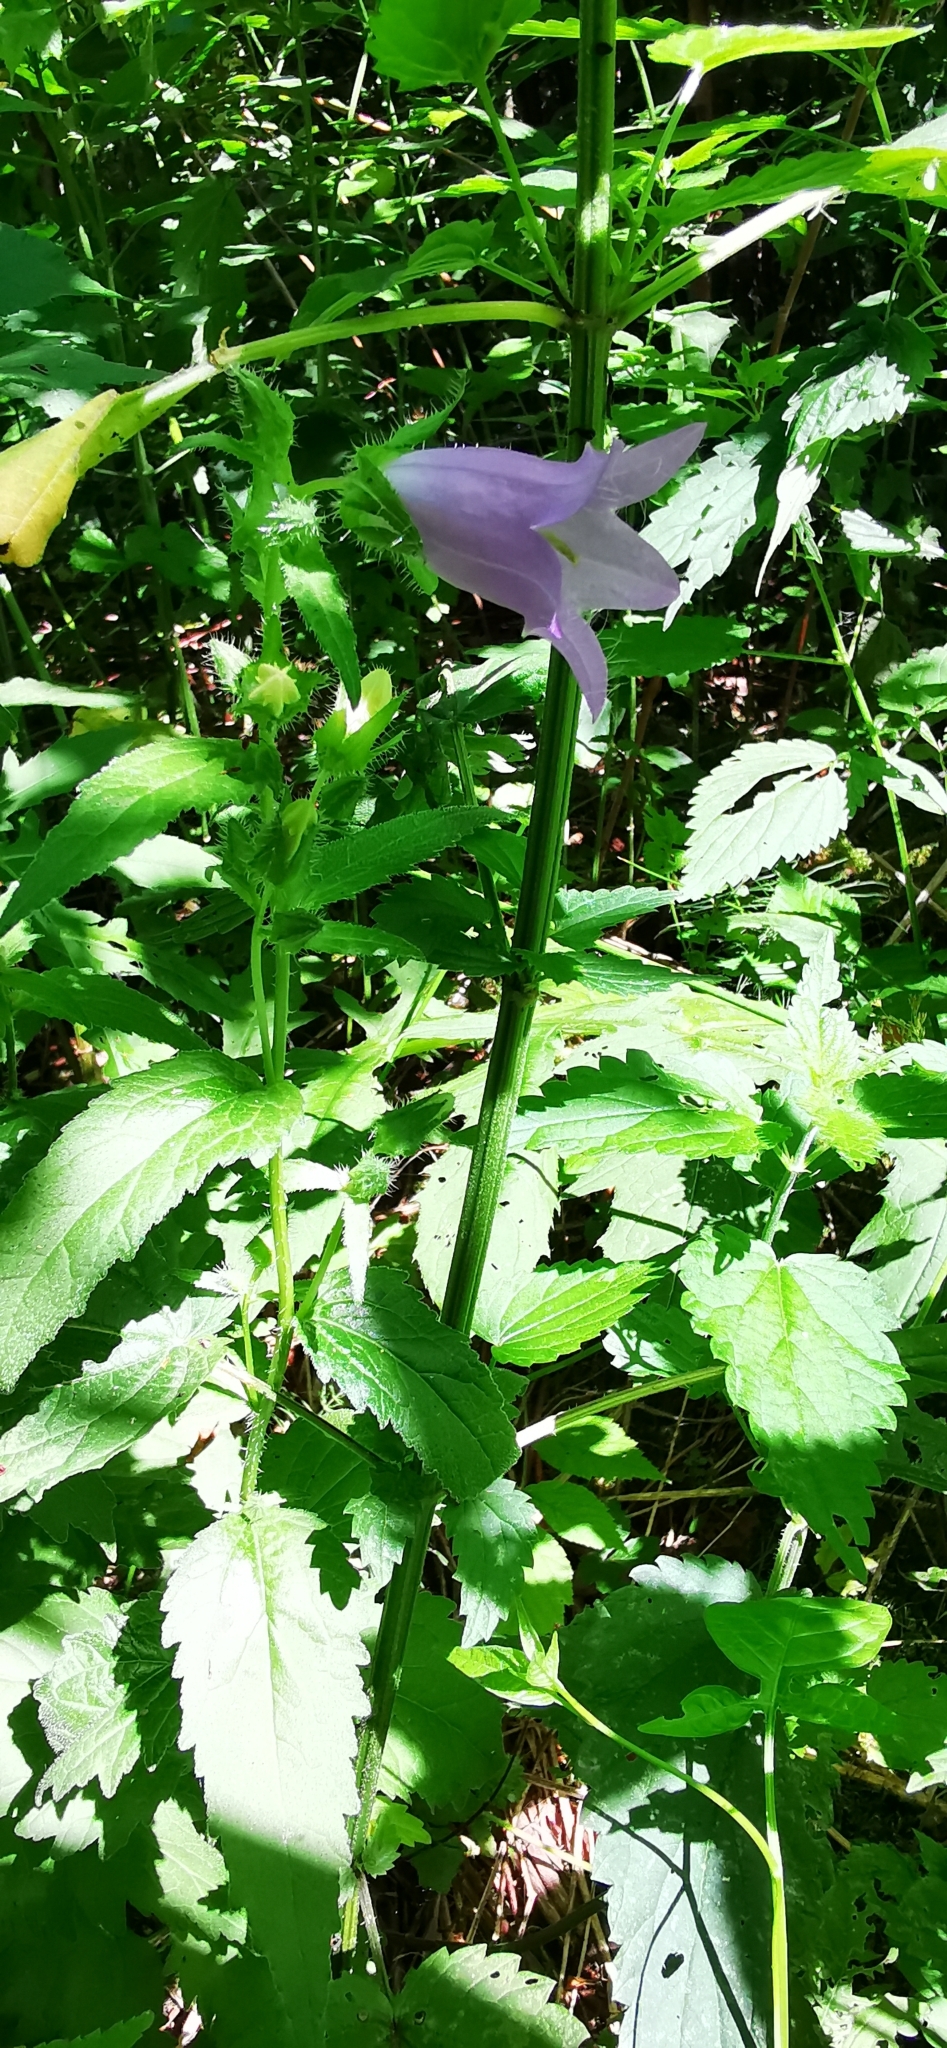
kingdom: Plantae
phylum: Tracheophyta
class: Magnoliopsida
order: Asterales
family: Campanulaceae
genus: Campanula
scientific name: Campanula trachelium
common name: Nettle-leaved bellflower
